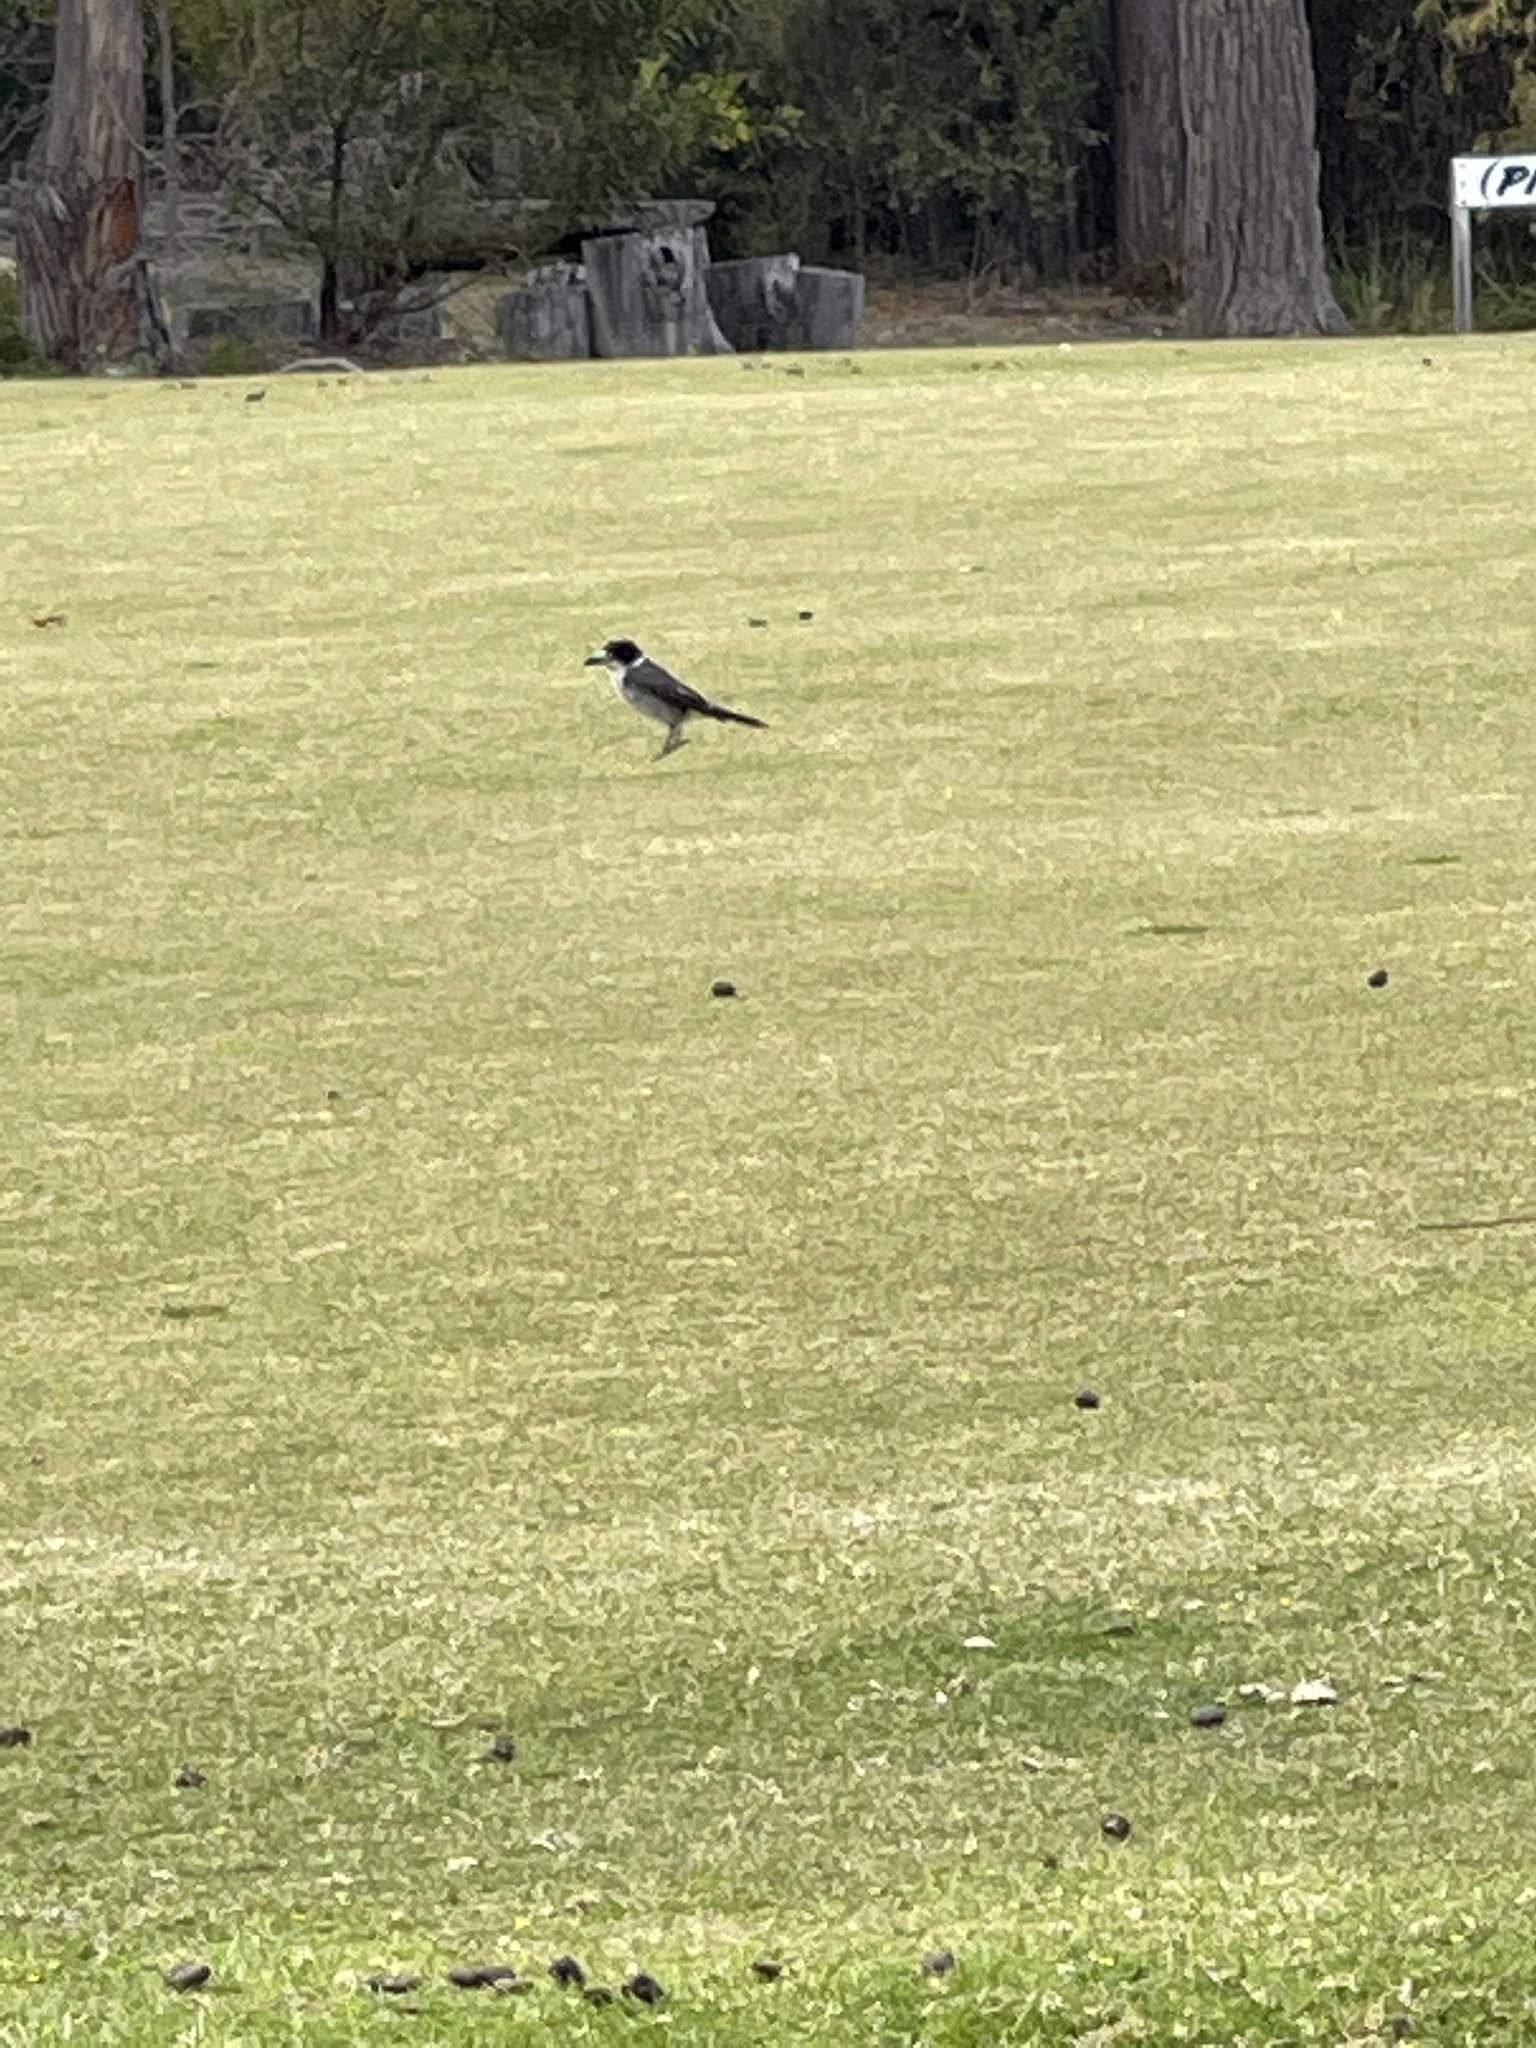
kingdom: Animalia
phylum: Chordata
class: Aves
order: Passeriformes
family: Cracticidae
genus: Cracticus
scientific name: Cracticus torquatus
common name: Grey butcherbird
